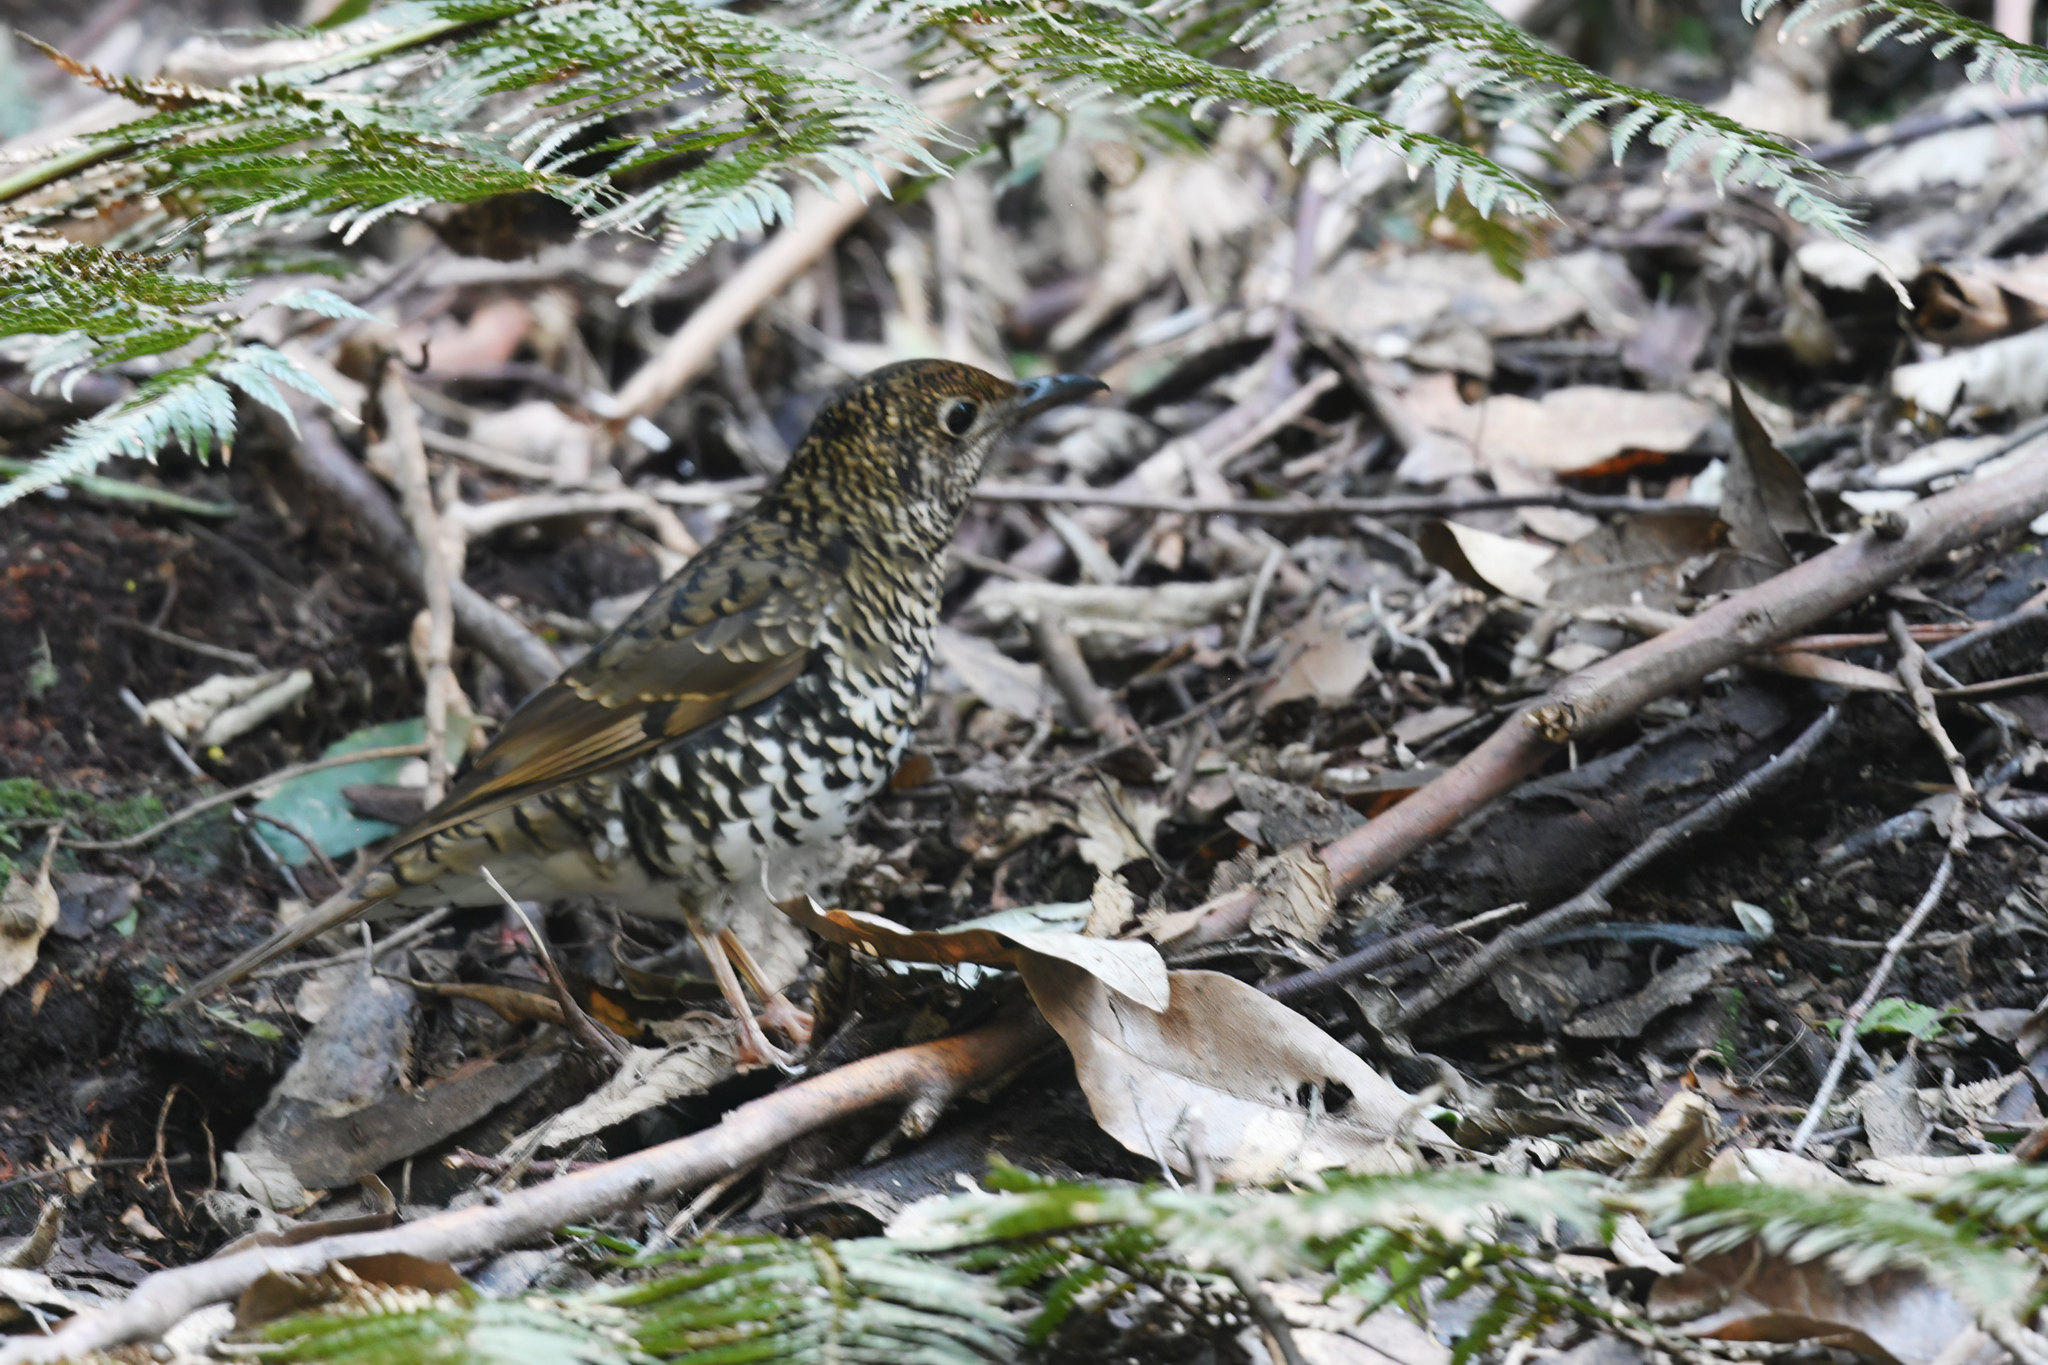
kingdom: Animalia
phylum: Chordata
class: Aves
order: Passeriformes
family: Turdidae
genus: Zoothera
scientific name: Zoothera lunulata
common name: Bassian thrush
